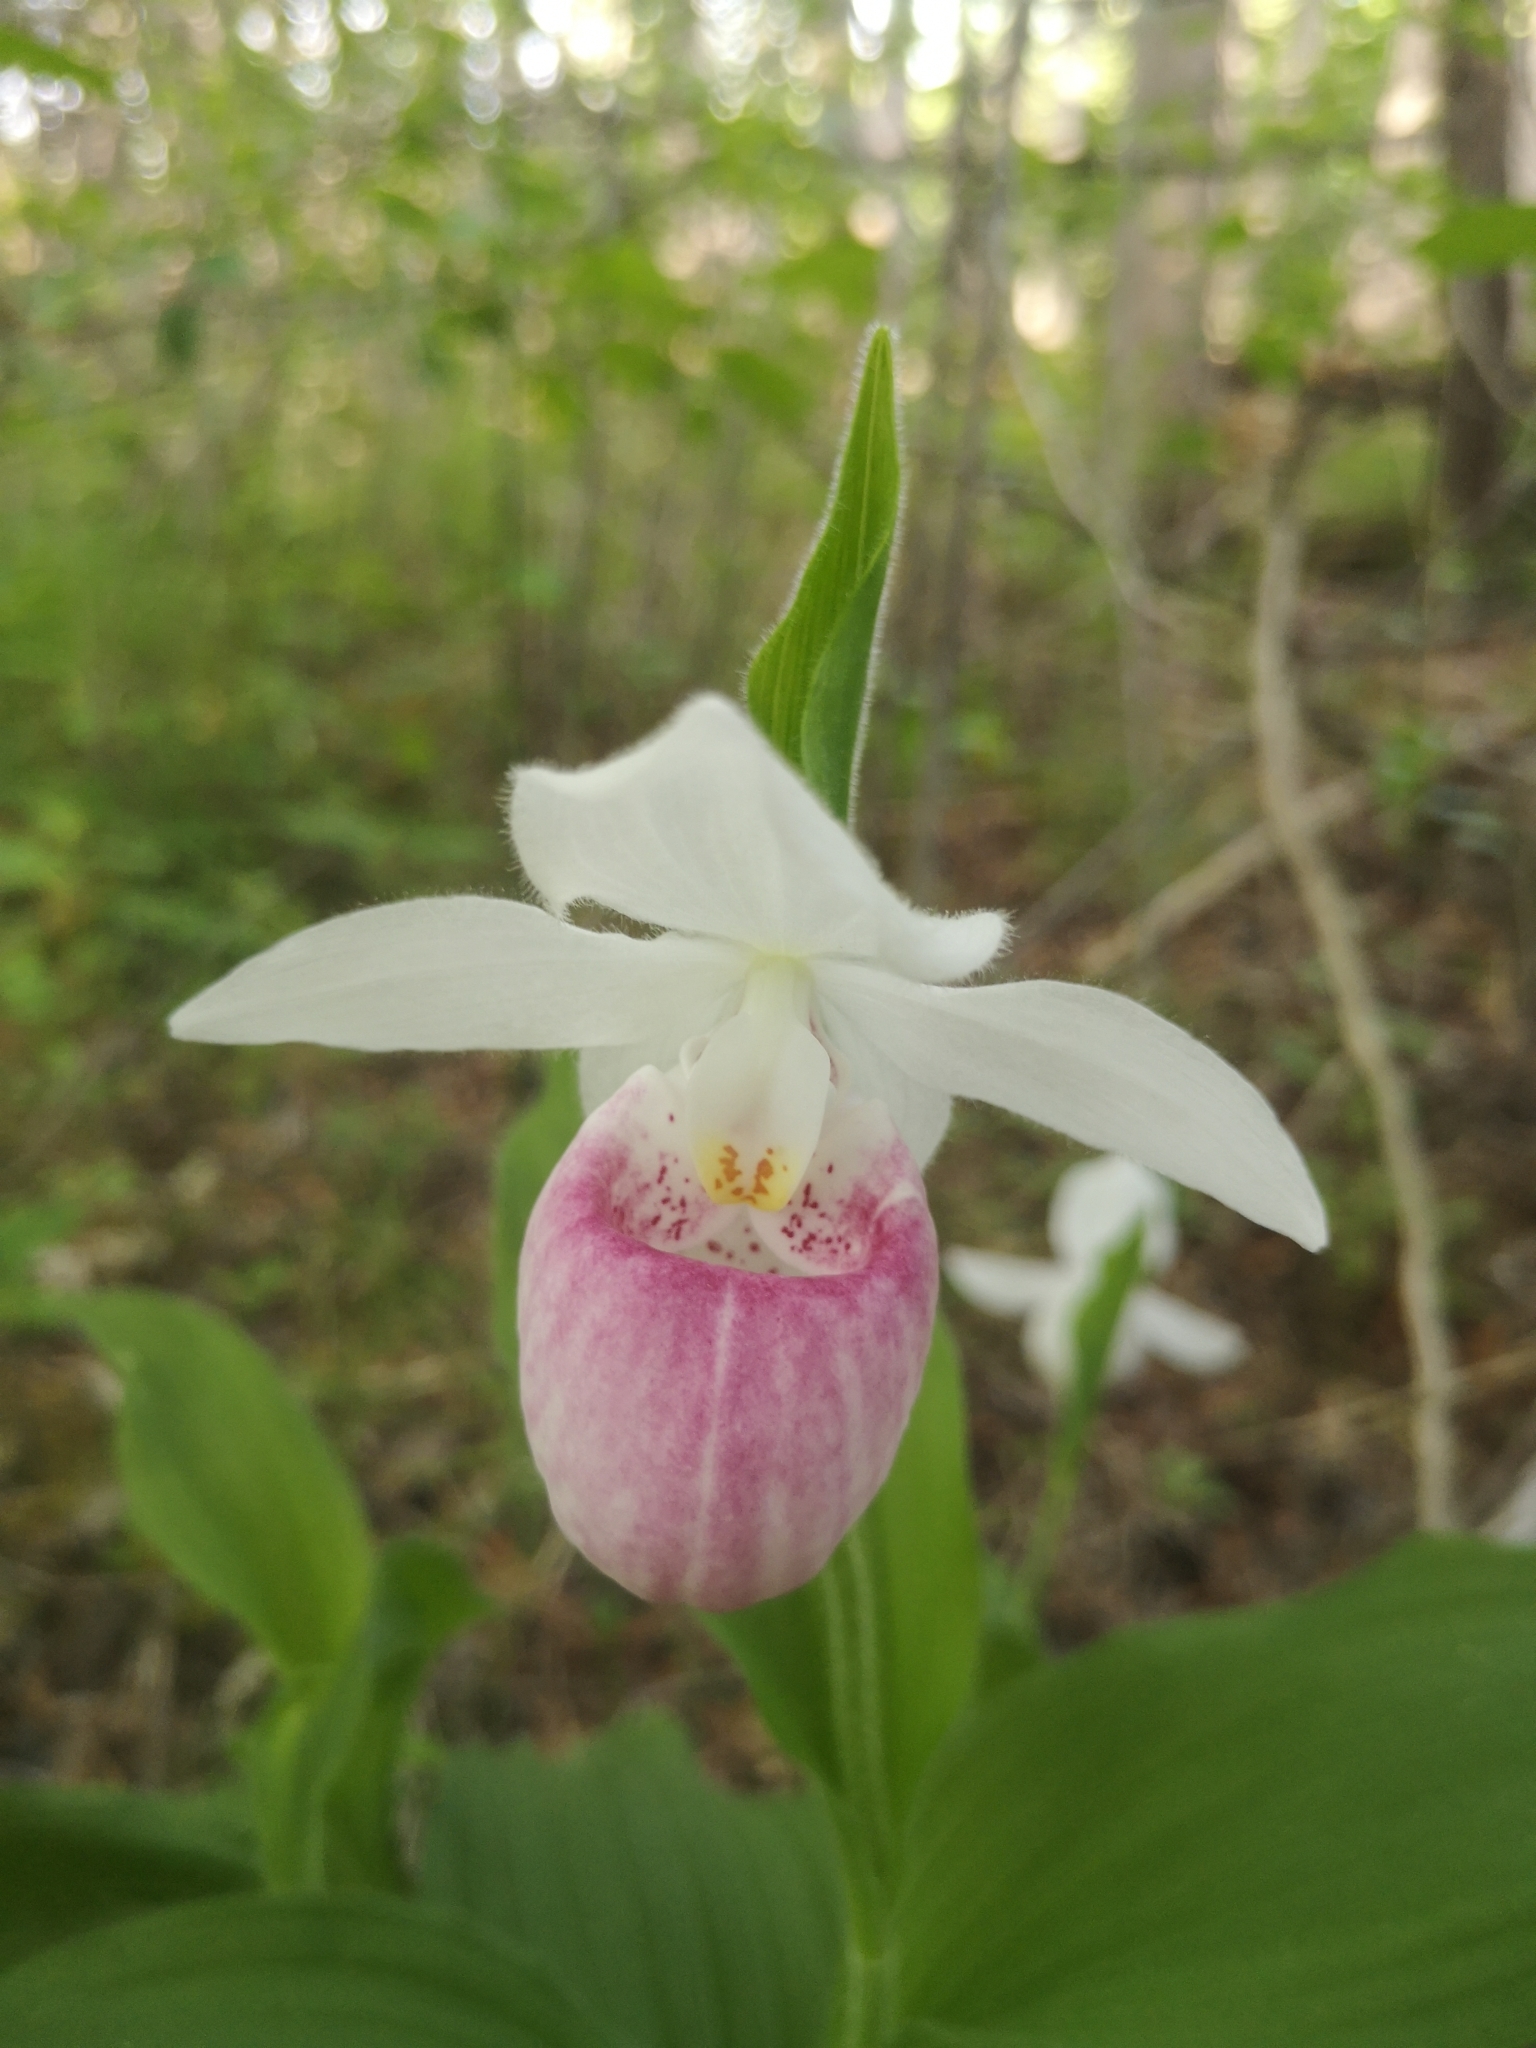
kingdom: Plantae
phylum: Tracheophyta
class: Liliopsida
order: Asparagales
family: Orchidaceae
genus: Cypripedium
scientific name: Cypripedium reginae
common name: Queen lady's-slipper
